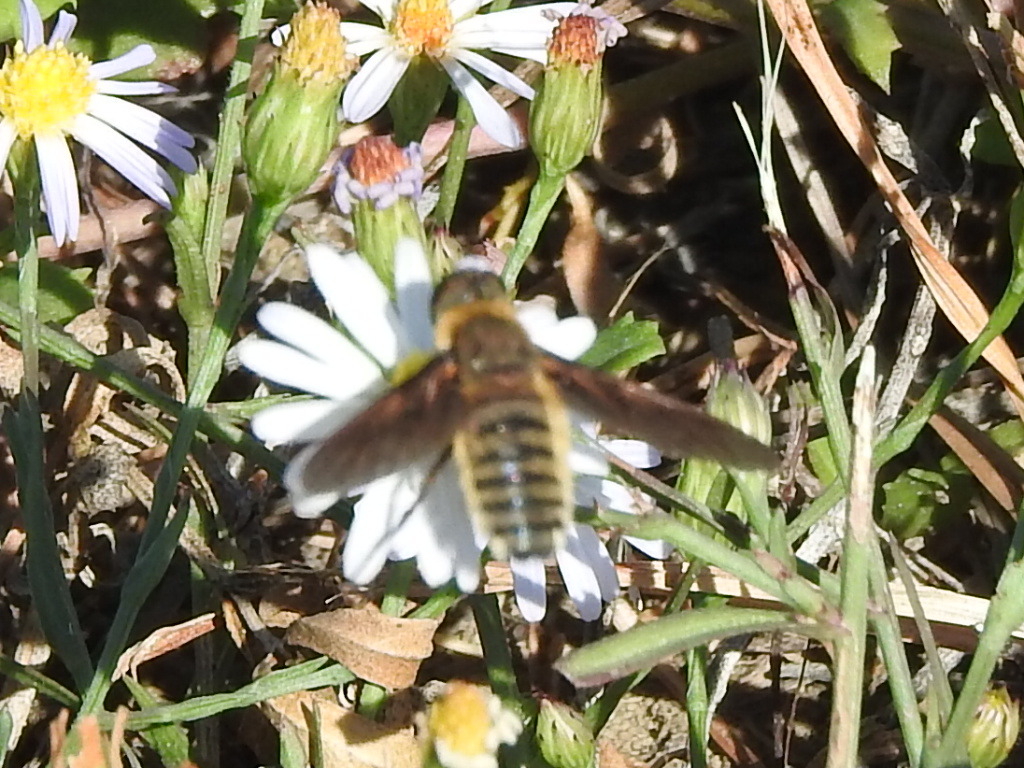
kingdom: Animalia
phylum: Arthropoda
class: Insecta
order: Diptera
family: Bombyliidae
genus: Poecilanthrax
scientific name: Poecilanthrax lucifer
